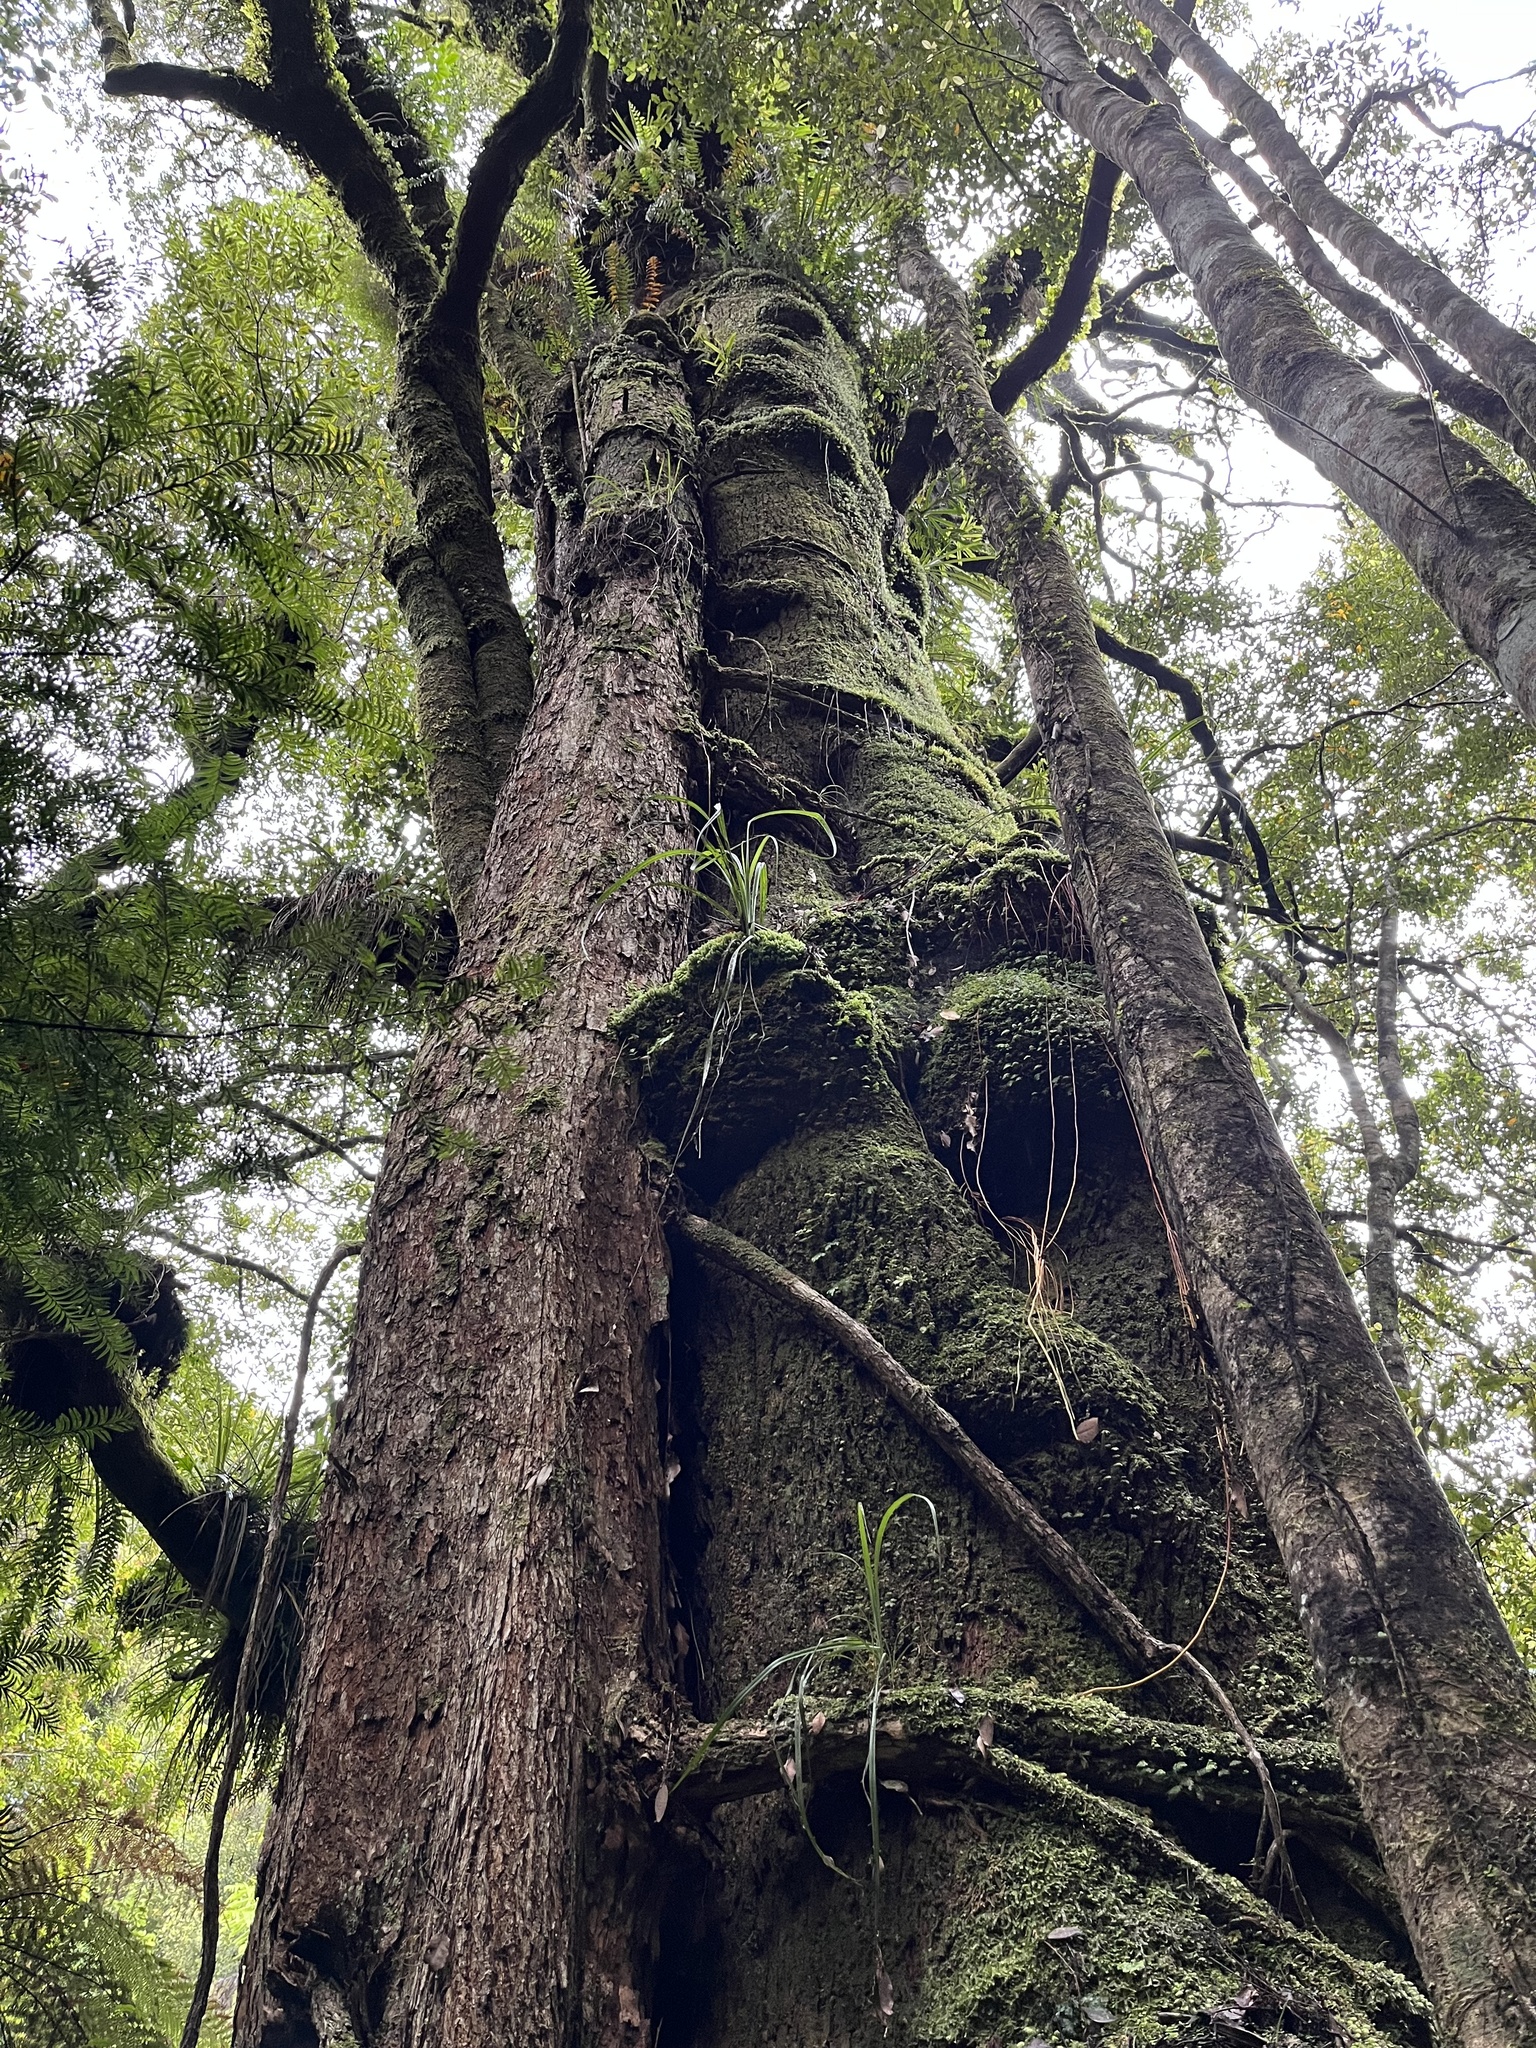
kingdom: Plantae
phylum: Tracheophyta
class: Magnoliopsida
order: Oxalidales
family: Elaeocarpaceae
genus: Elaeocarpus
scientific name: Elaeocarpus dentatus
